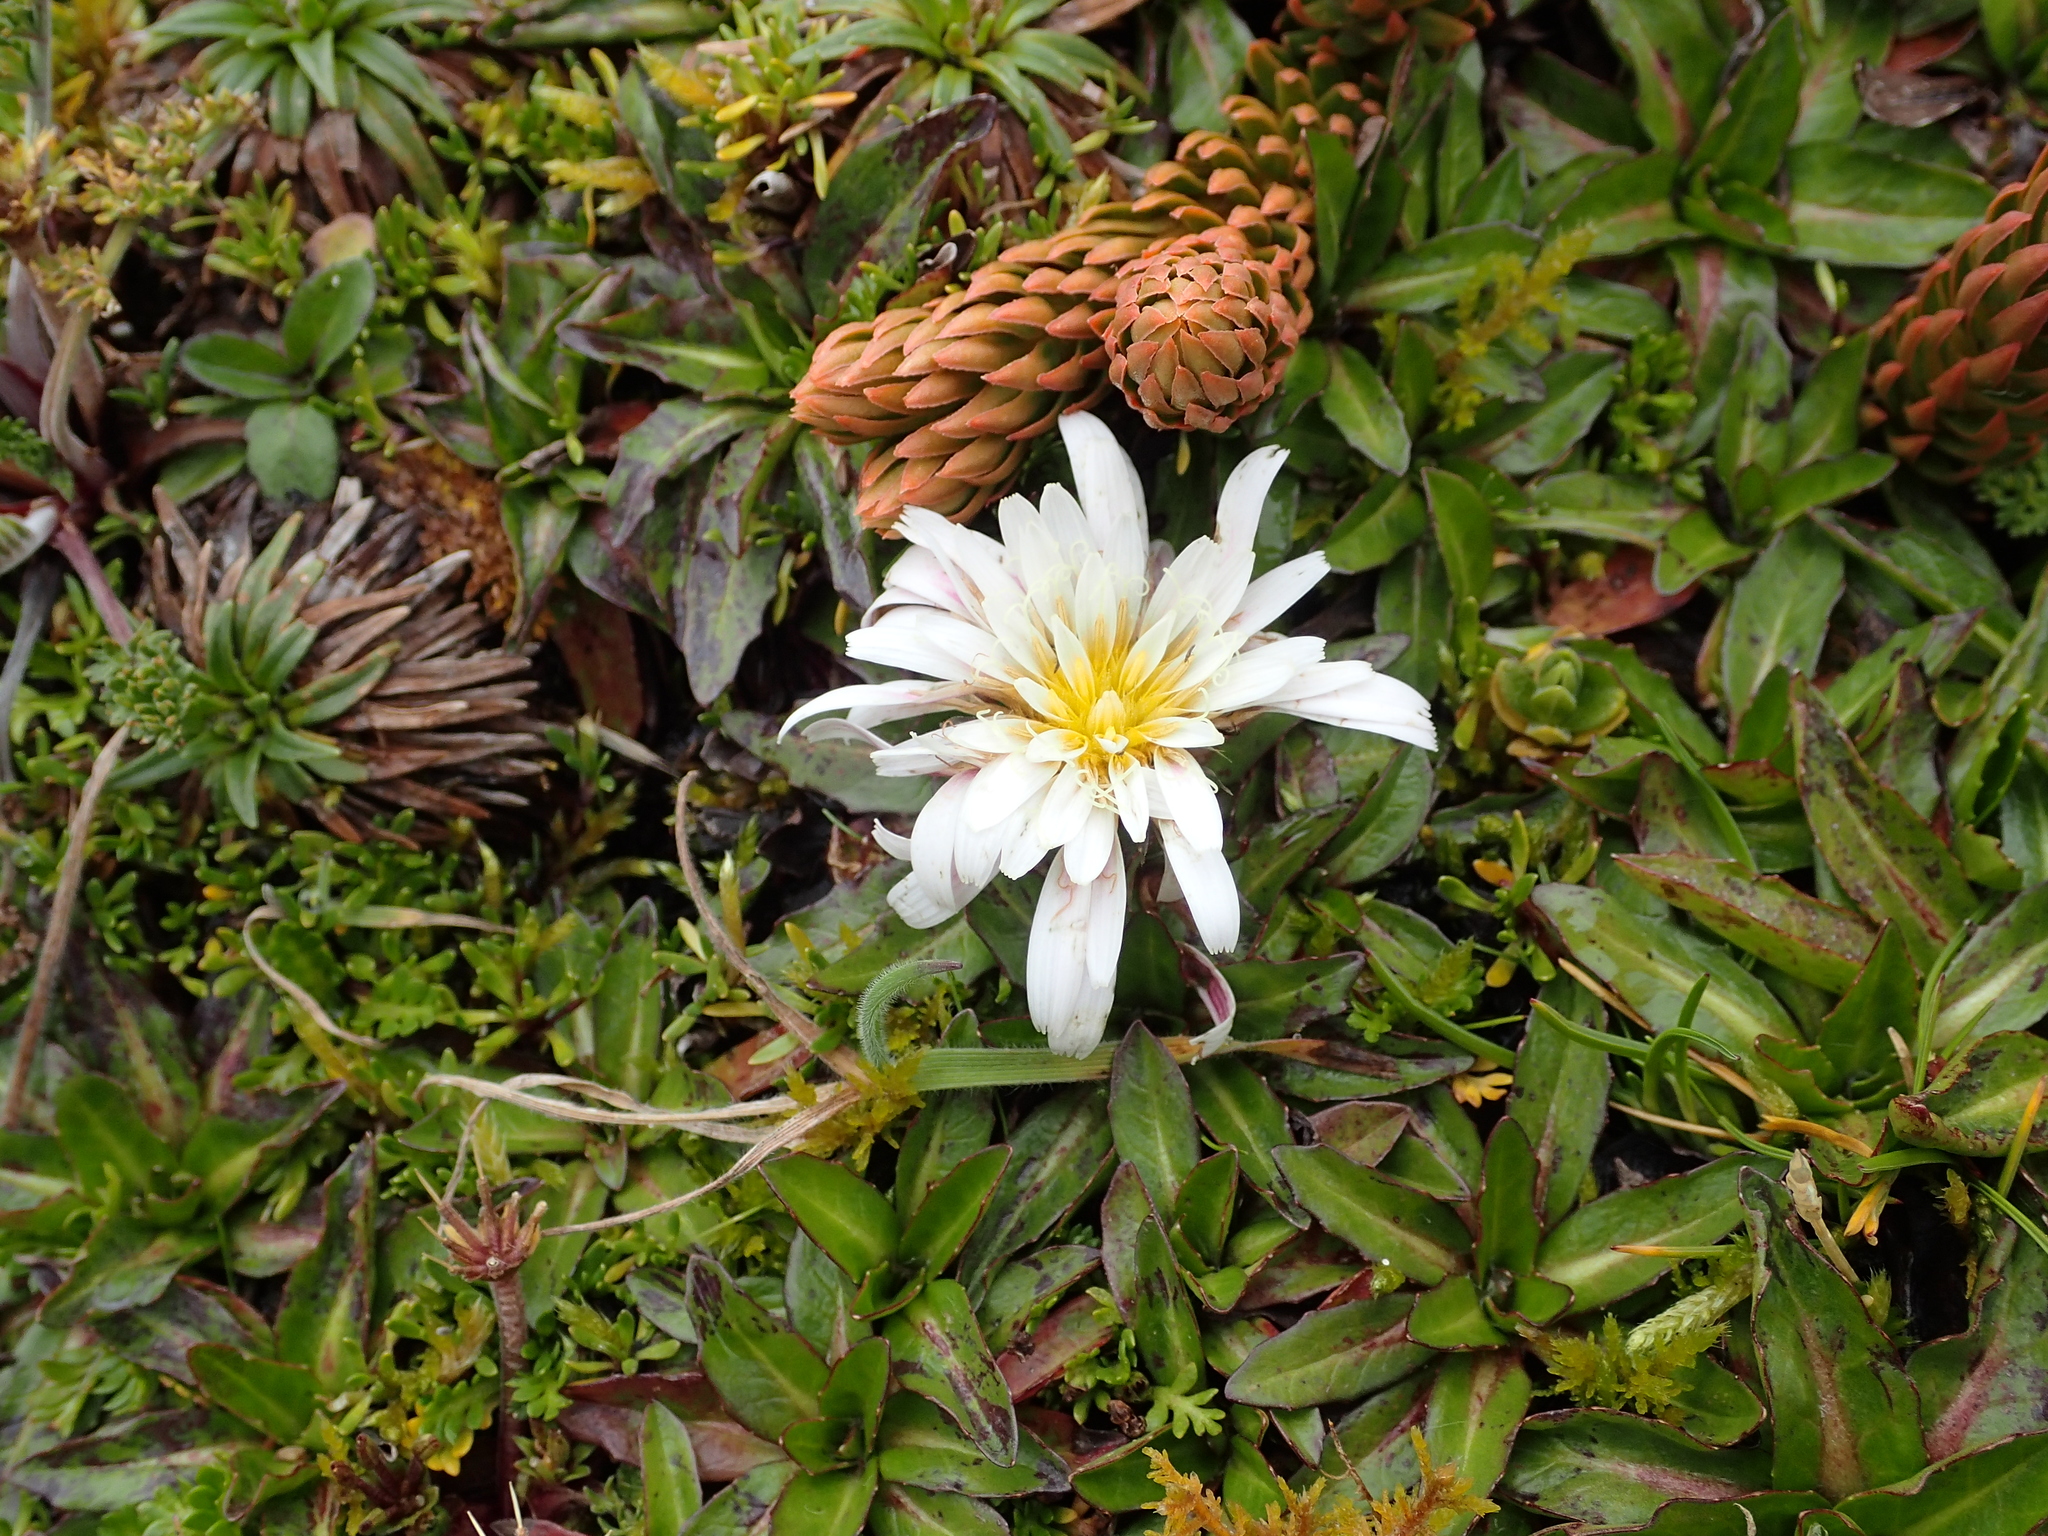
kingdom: Plantae
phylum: Tracheophyta
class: Magnoliopsida
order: Asterales
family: Asteraceae
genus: Hypochaeris
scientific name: Hypochaeris sessiliflora
